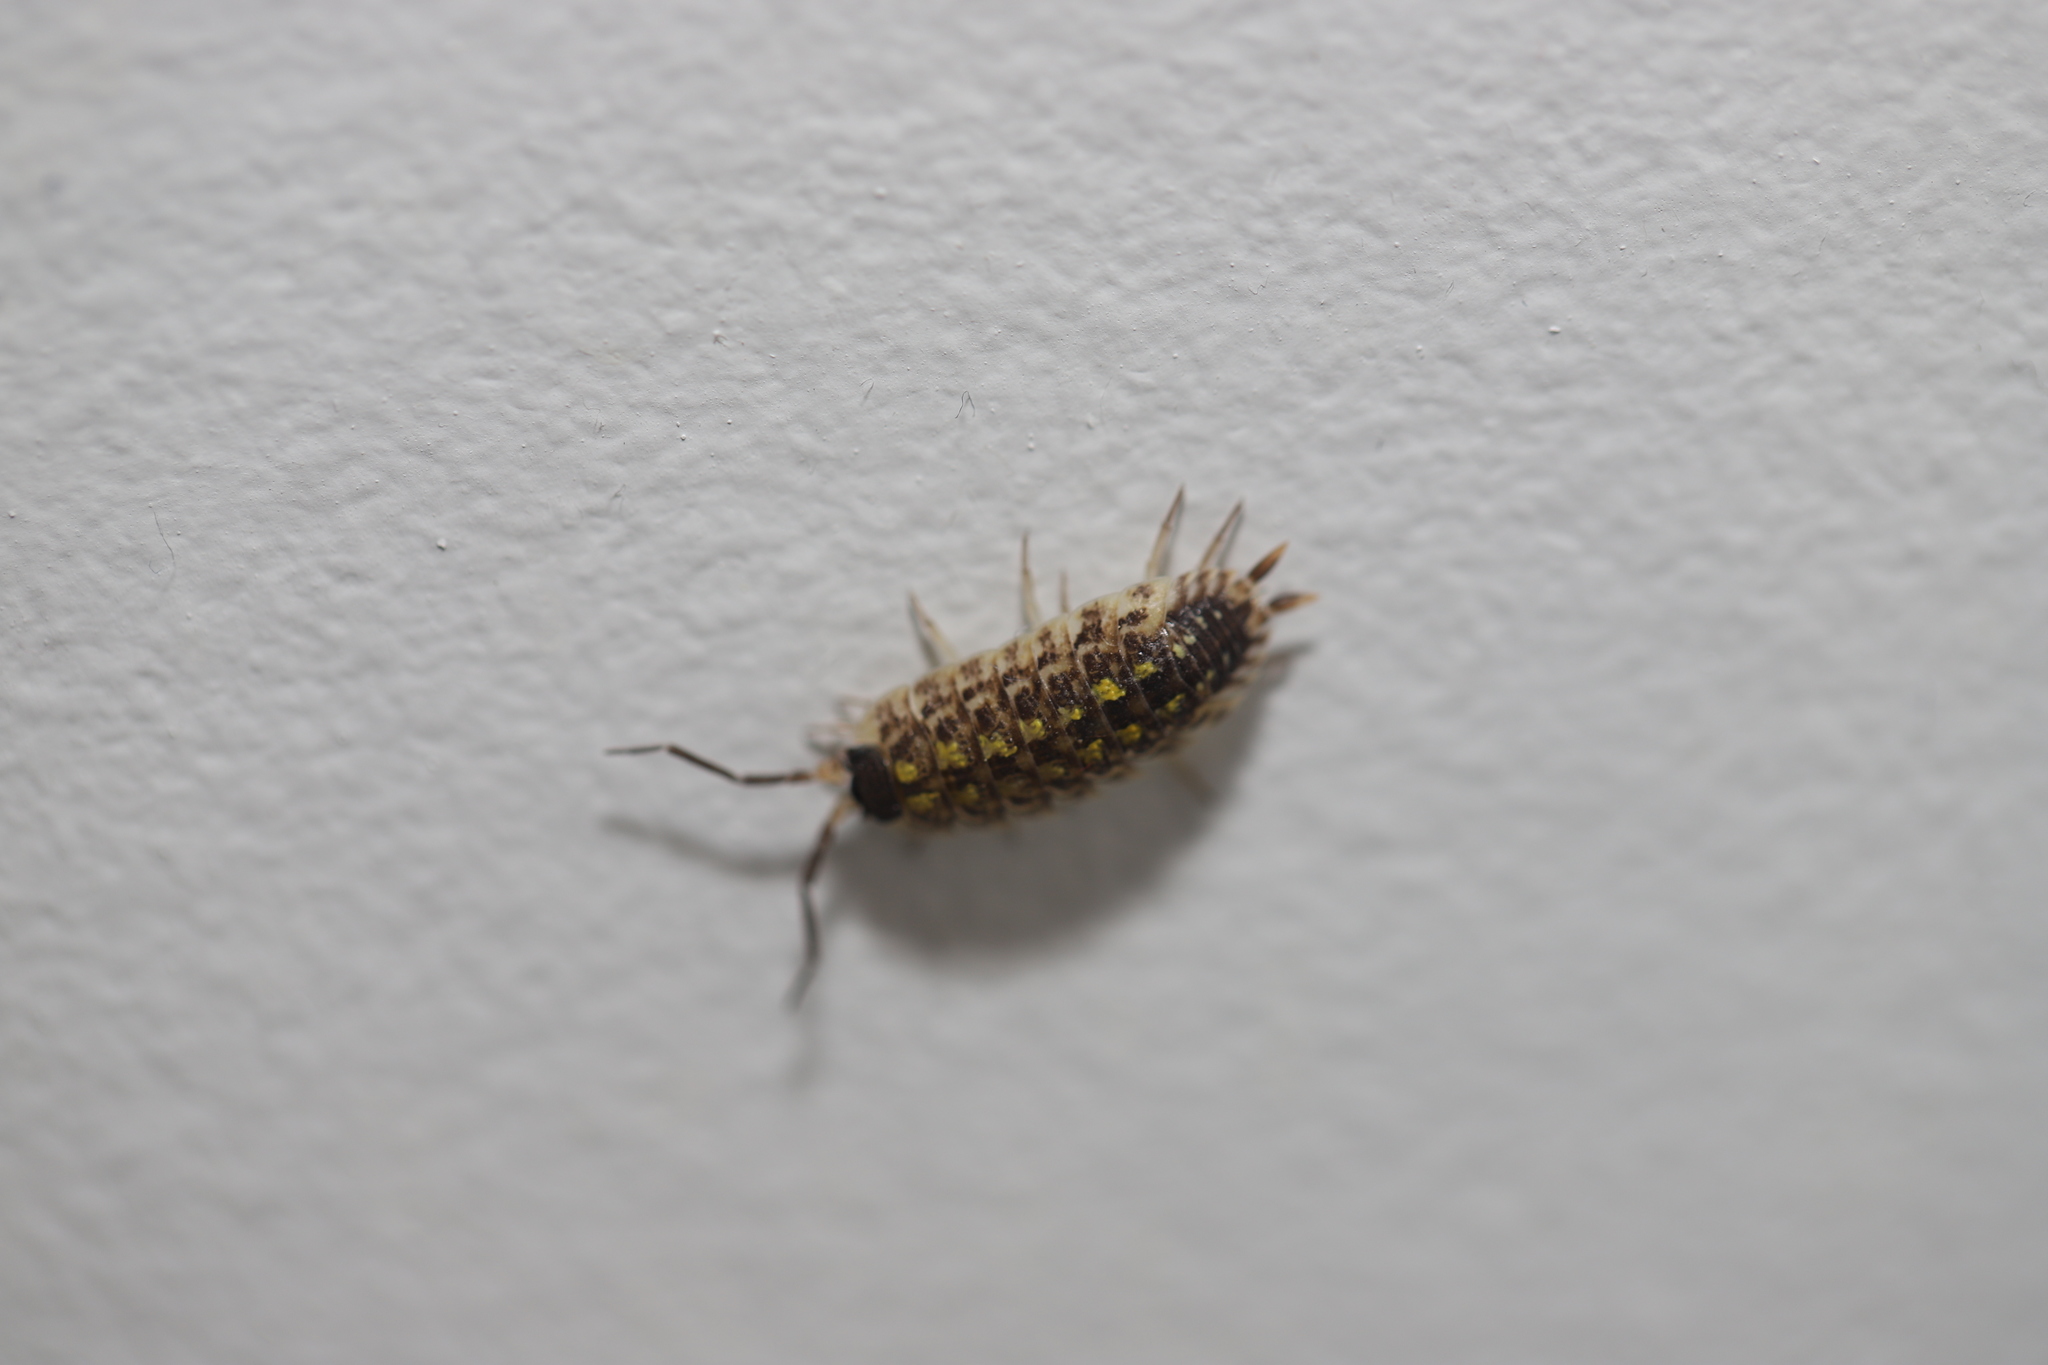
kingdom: Animalia
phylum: Arthropoda
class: Malacostraca
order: Isopoda
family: Porcellionidae
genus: Porcellio
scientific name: Porcellio spinicornis
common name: Painted woodlouse
